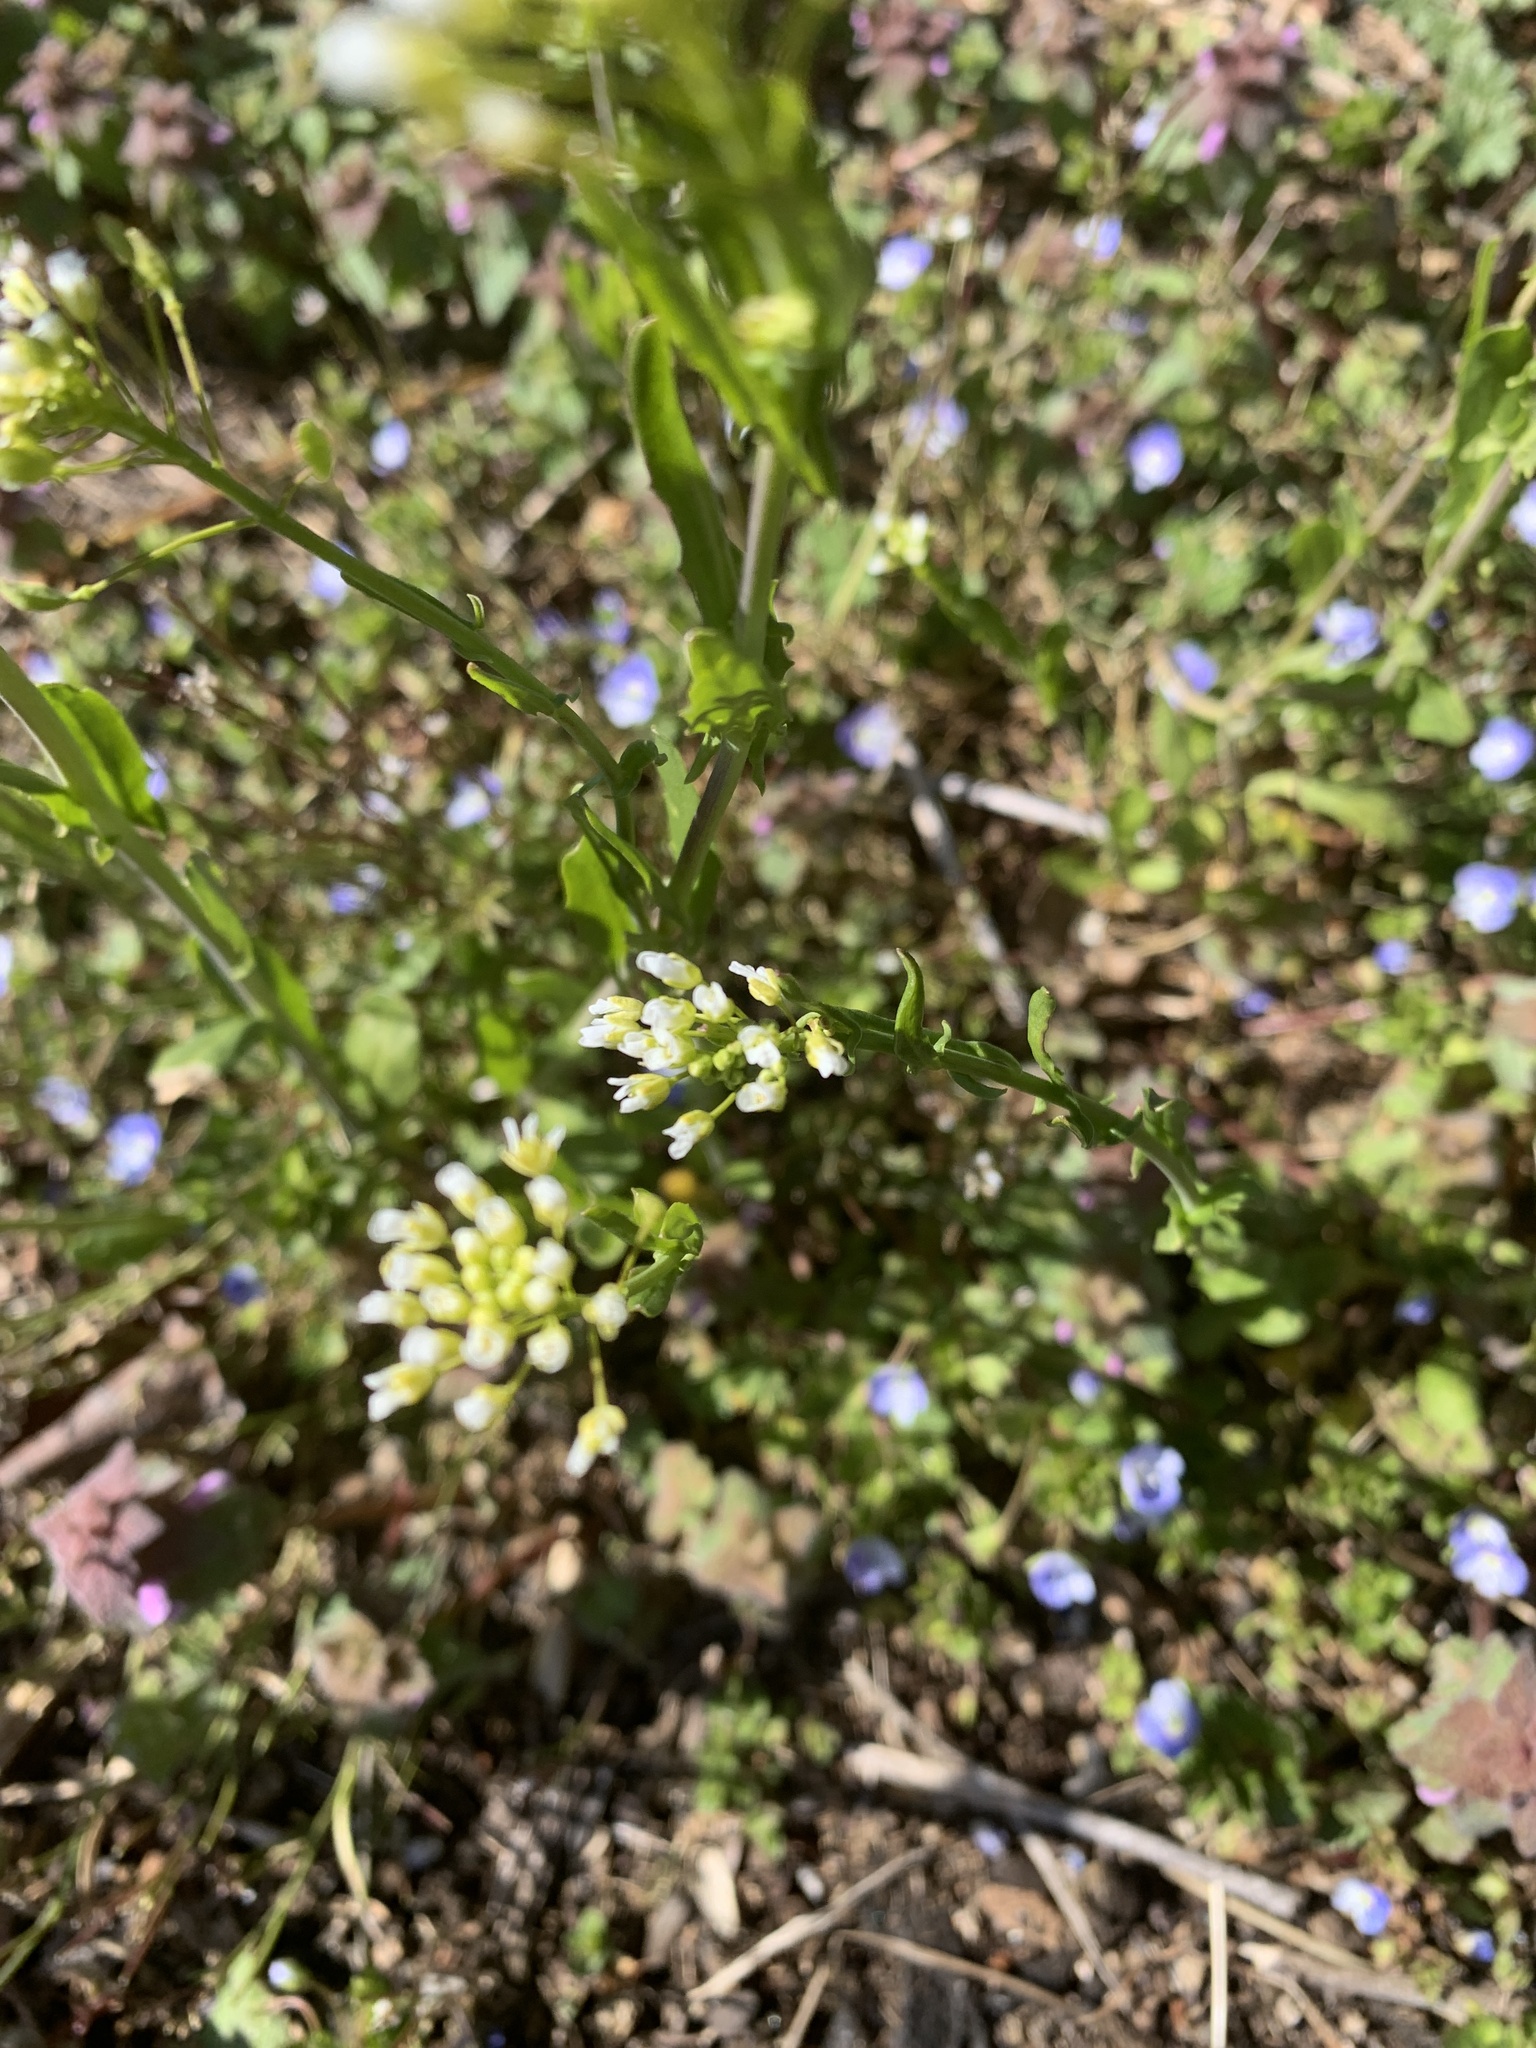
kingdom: Plantae
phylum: Tracheophyta
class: Magnoliopsida
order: Brassicales
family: Brassicaceae
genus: Mummenhoffia
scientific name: Mummenhoffia alliacea
